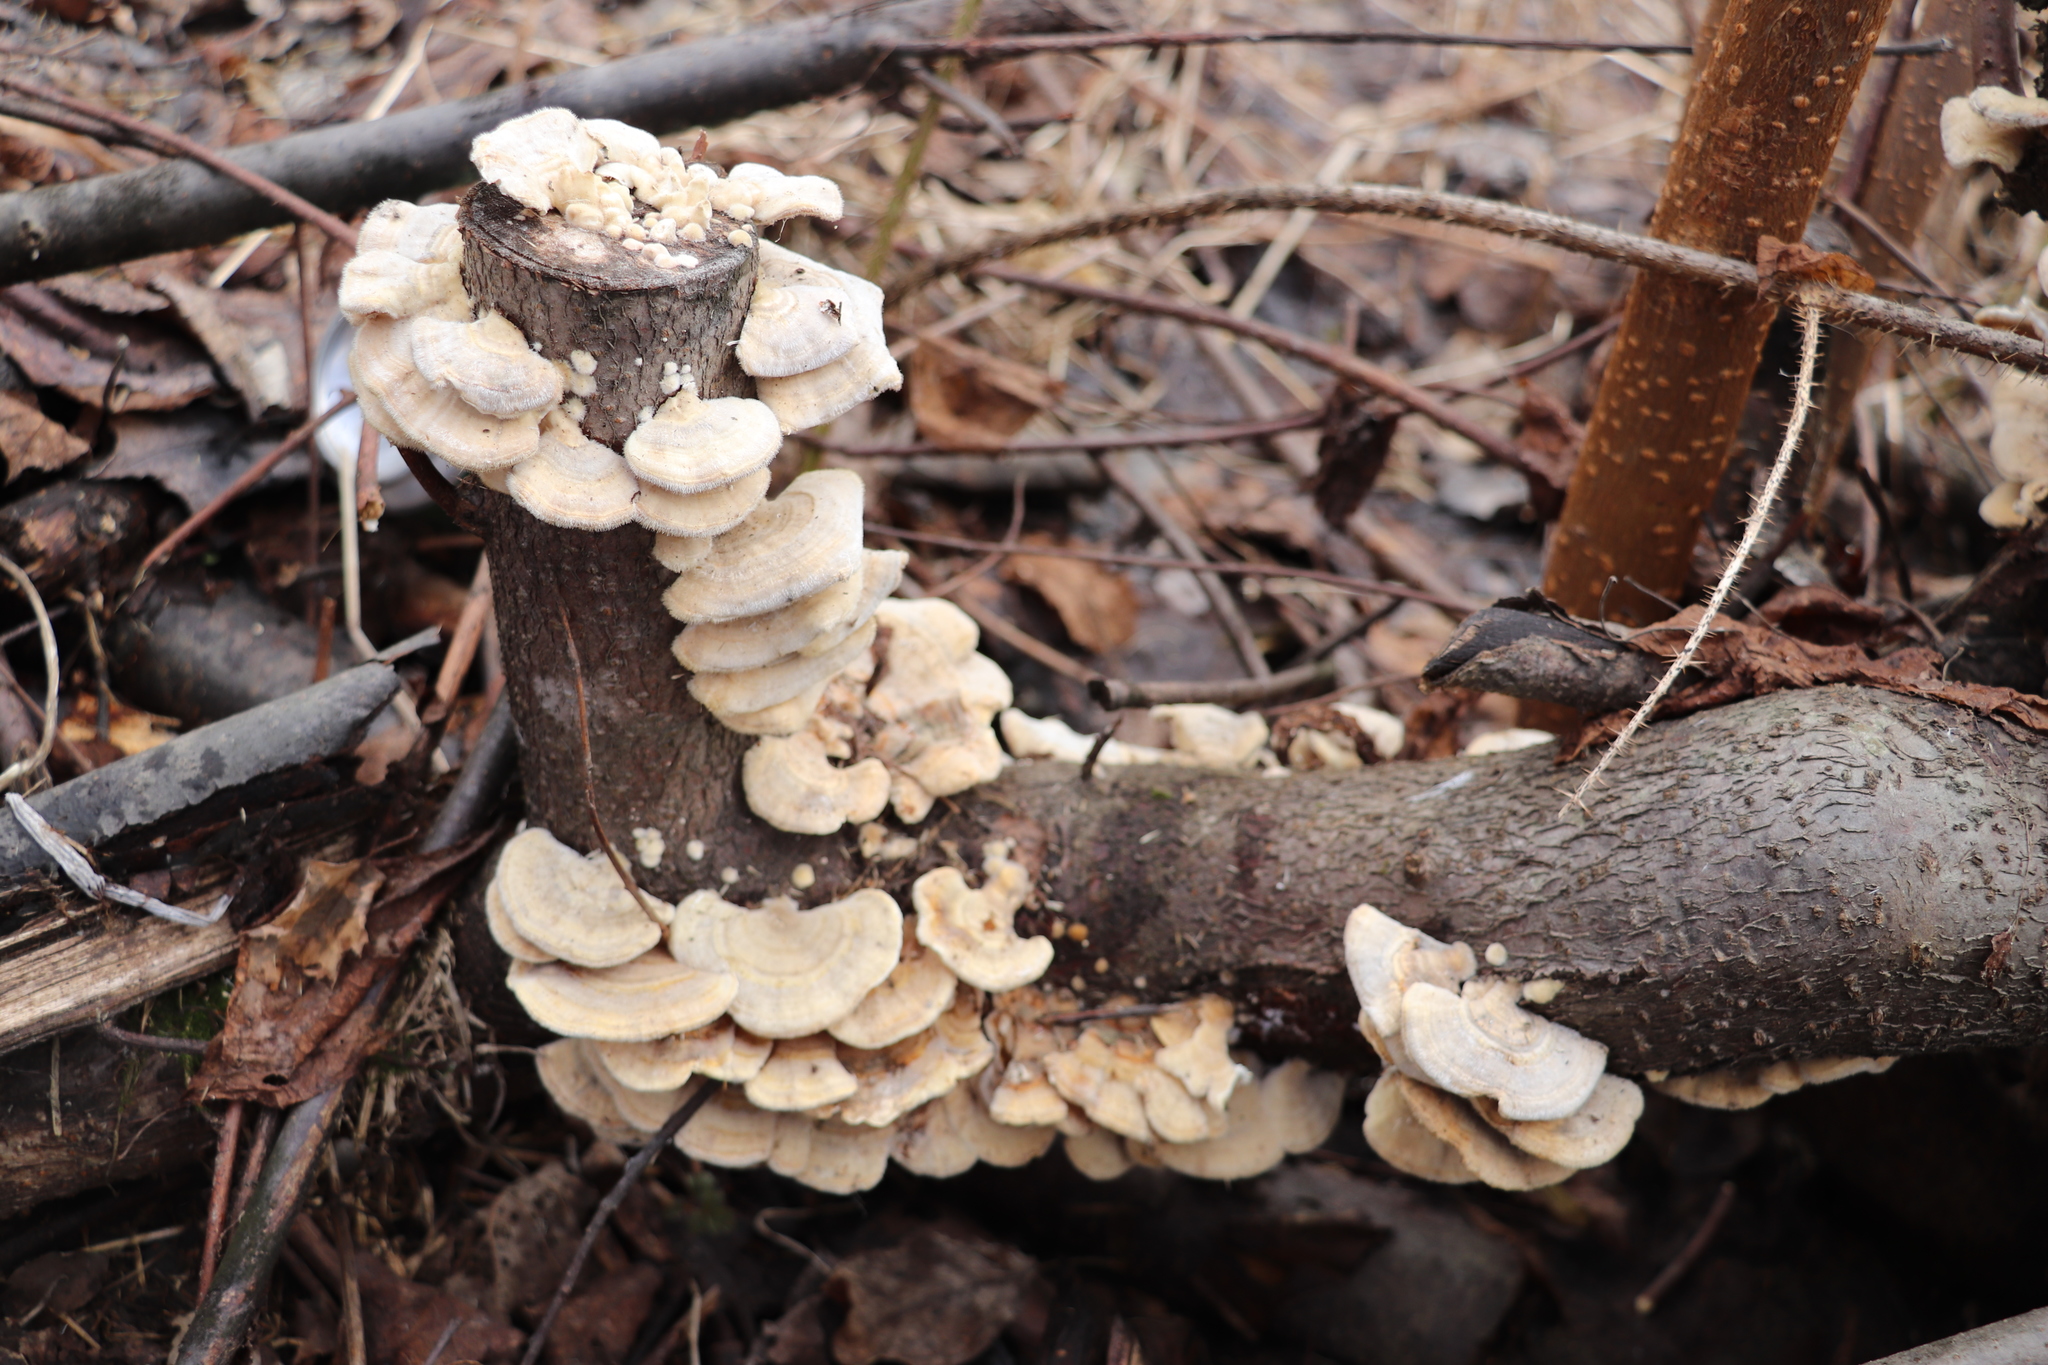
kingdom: Fungi
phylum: Basidiomycota
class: Agaricomycetes
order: Polyporales
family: Polyporaceae
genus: Trametes
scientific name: Trametes pubescens
